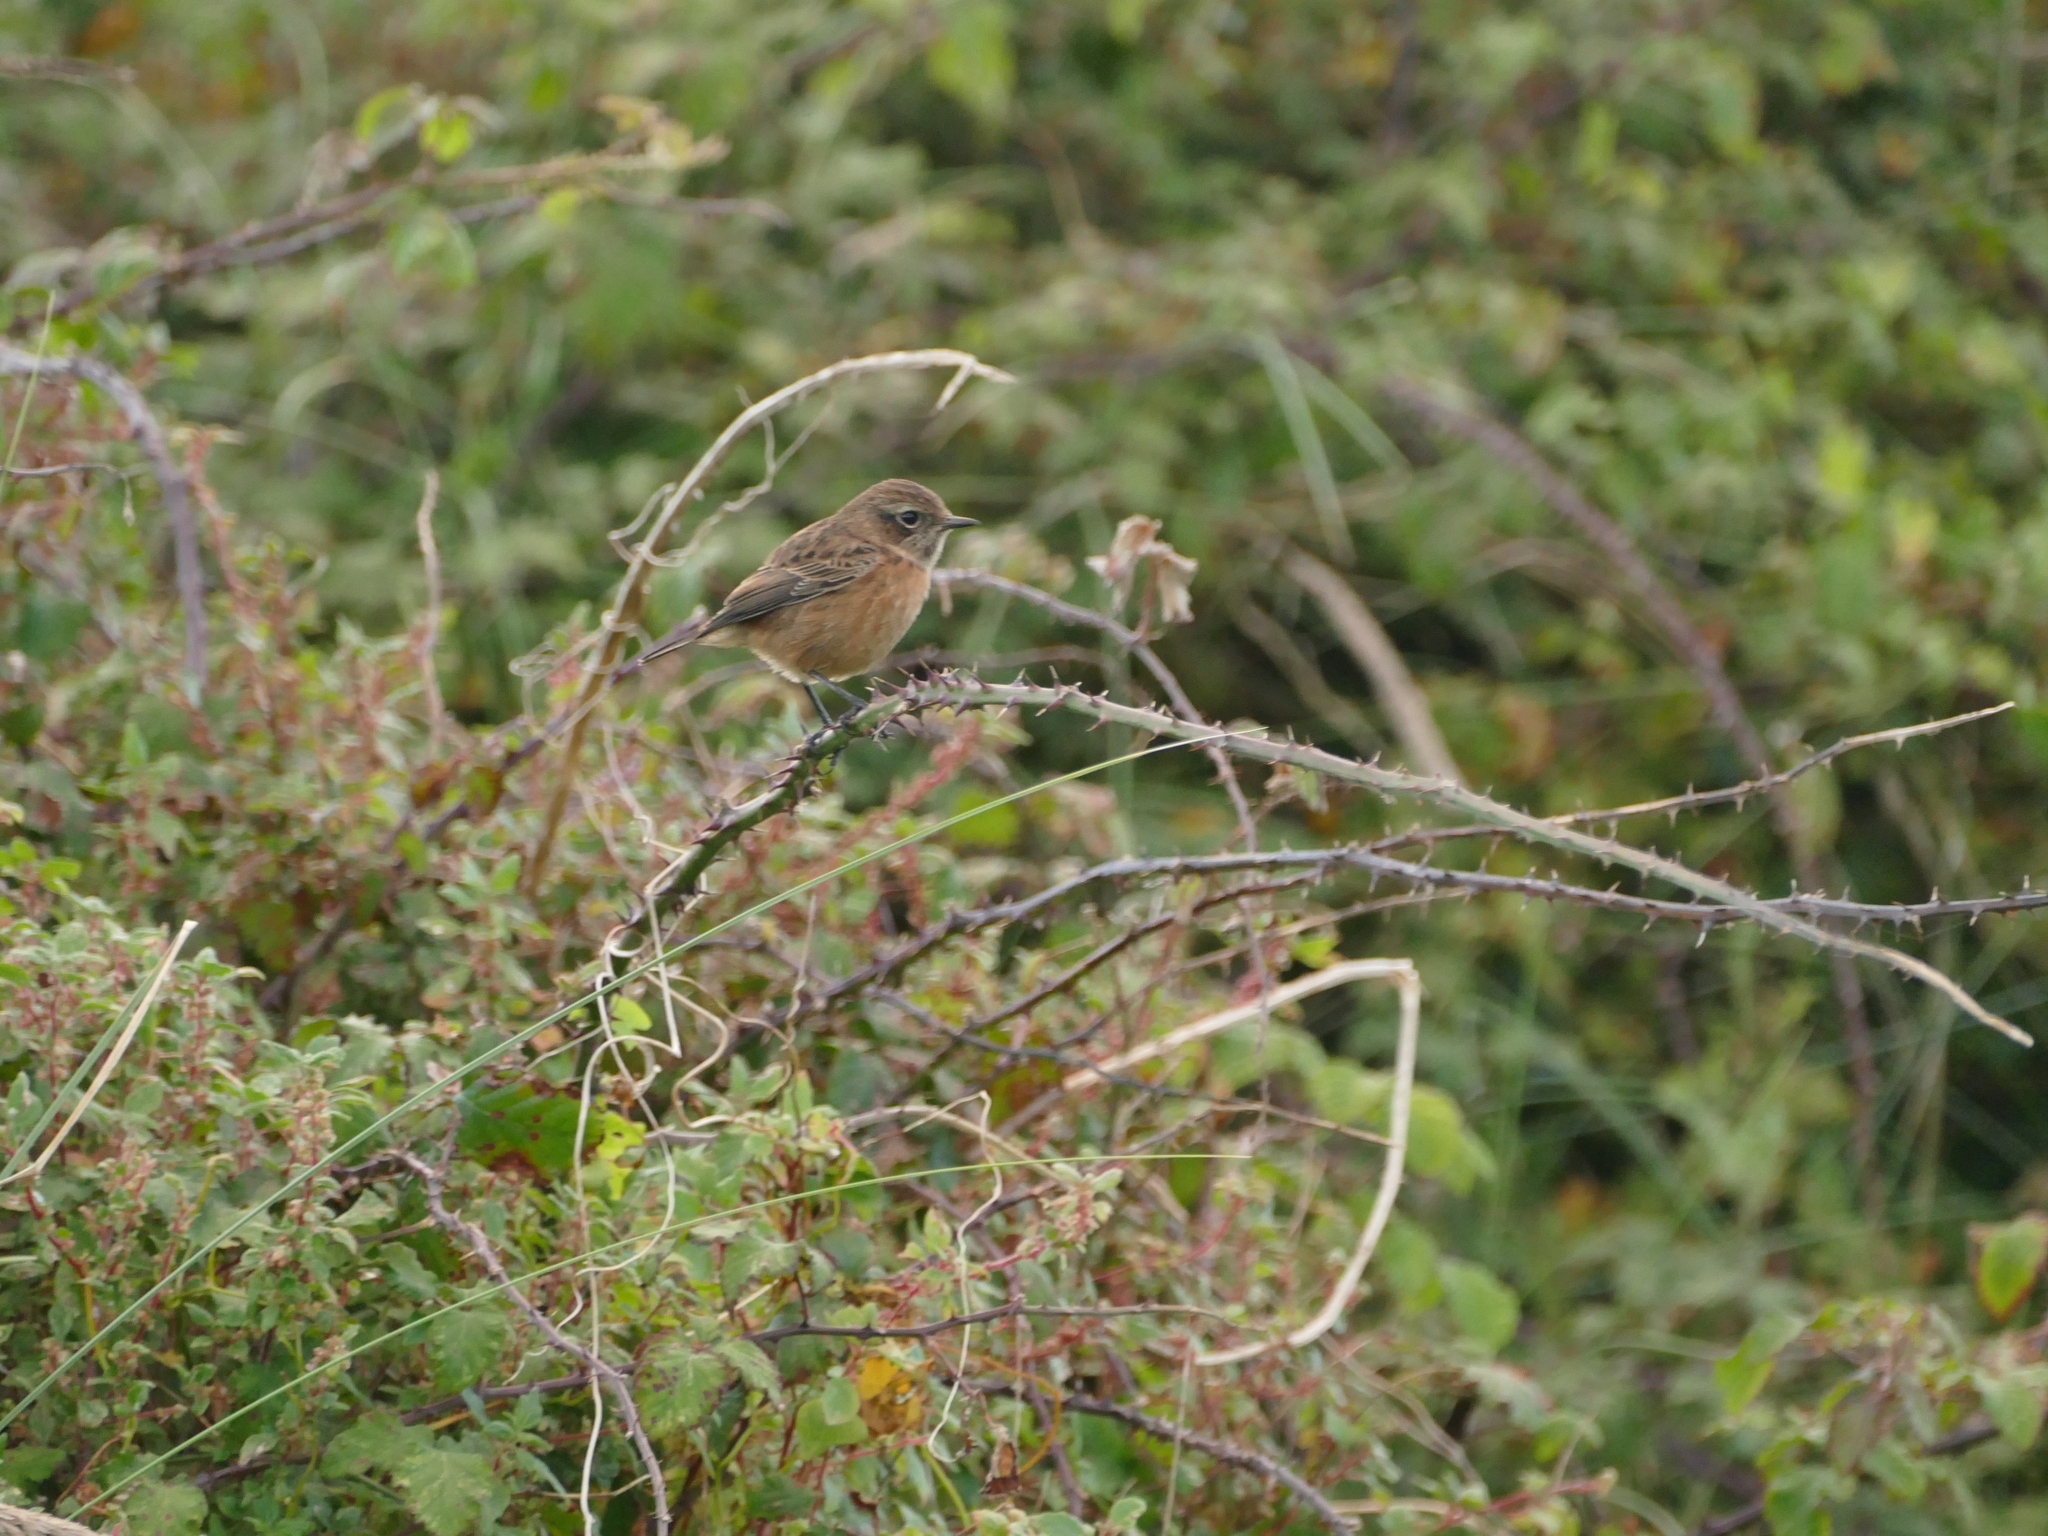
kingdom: Animalia
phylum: Chordata
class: Aves
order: Passeriformes
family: Muscicapidae
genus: Saxicola
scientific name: Saxicola rubicola
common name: European stonechat
